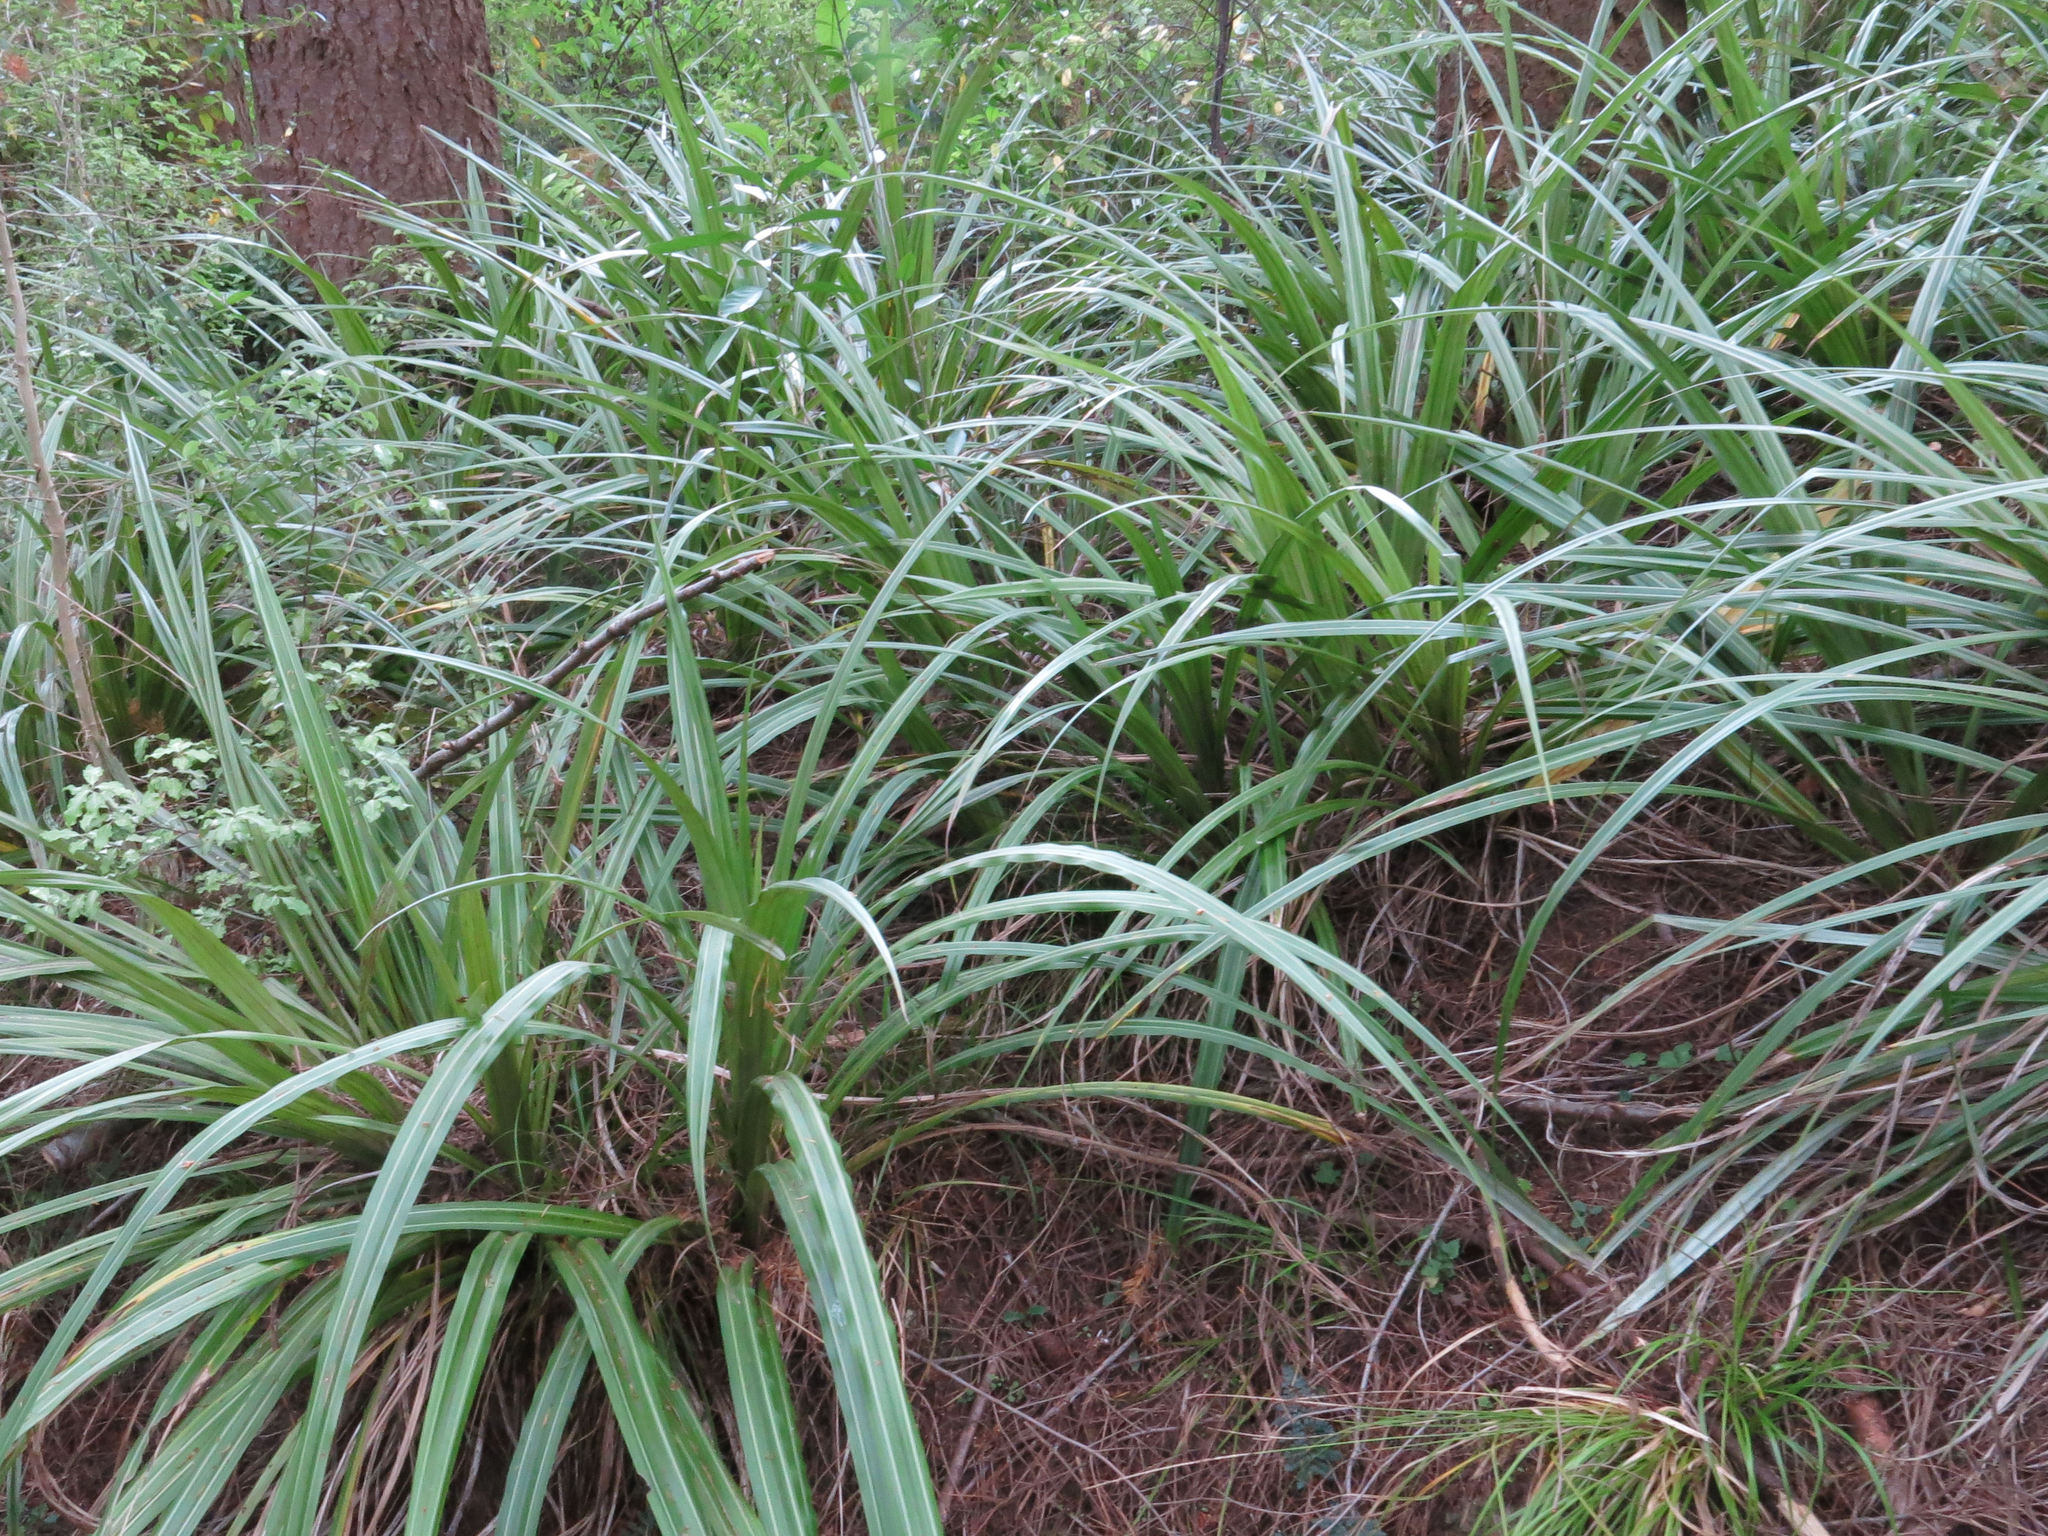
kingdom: Plantae
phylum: Tracheophyta
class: Liliopsida
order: Asparagales
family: Asteliaceae
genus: Astelia
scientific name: Astelia fragrans
